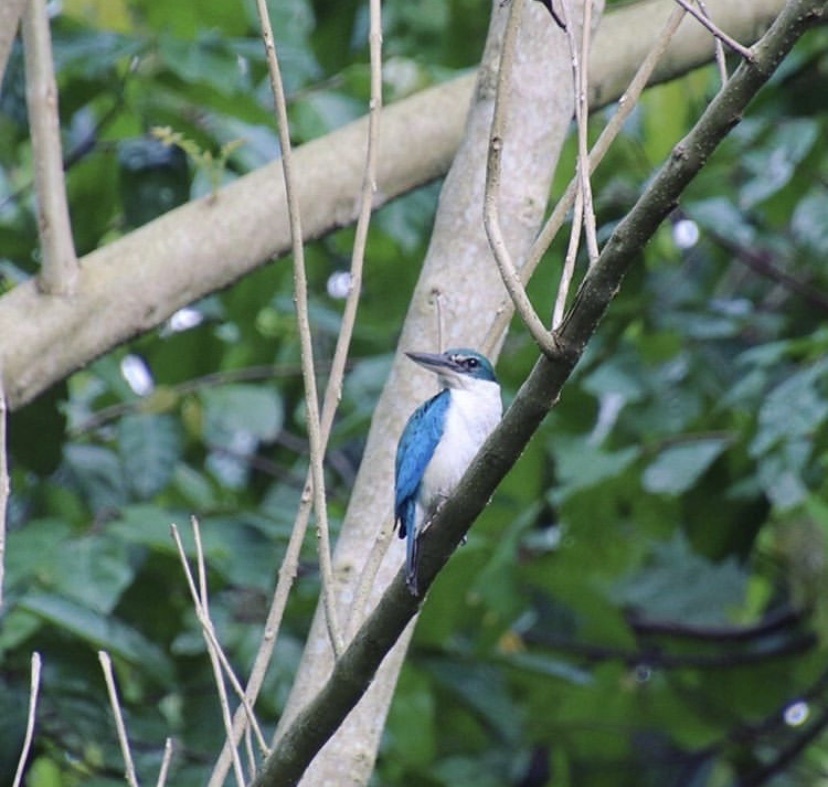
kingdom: Animalia
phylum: Chordata
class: Aves
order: Coraciiformes
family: Alcedinidae
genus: Todiramphus
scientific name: Todiramphus chloris
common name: Collared kingfisher
